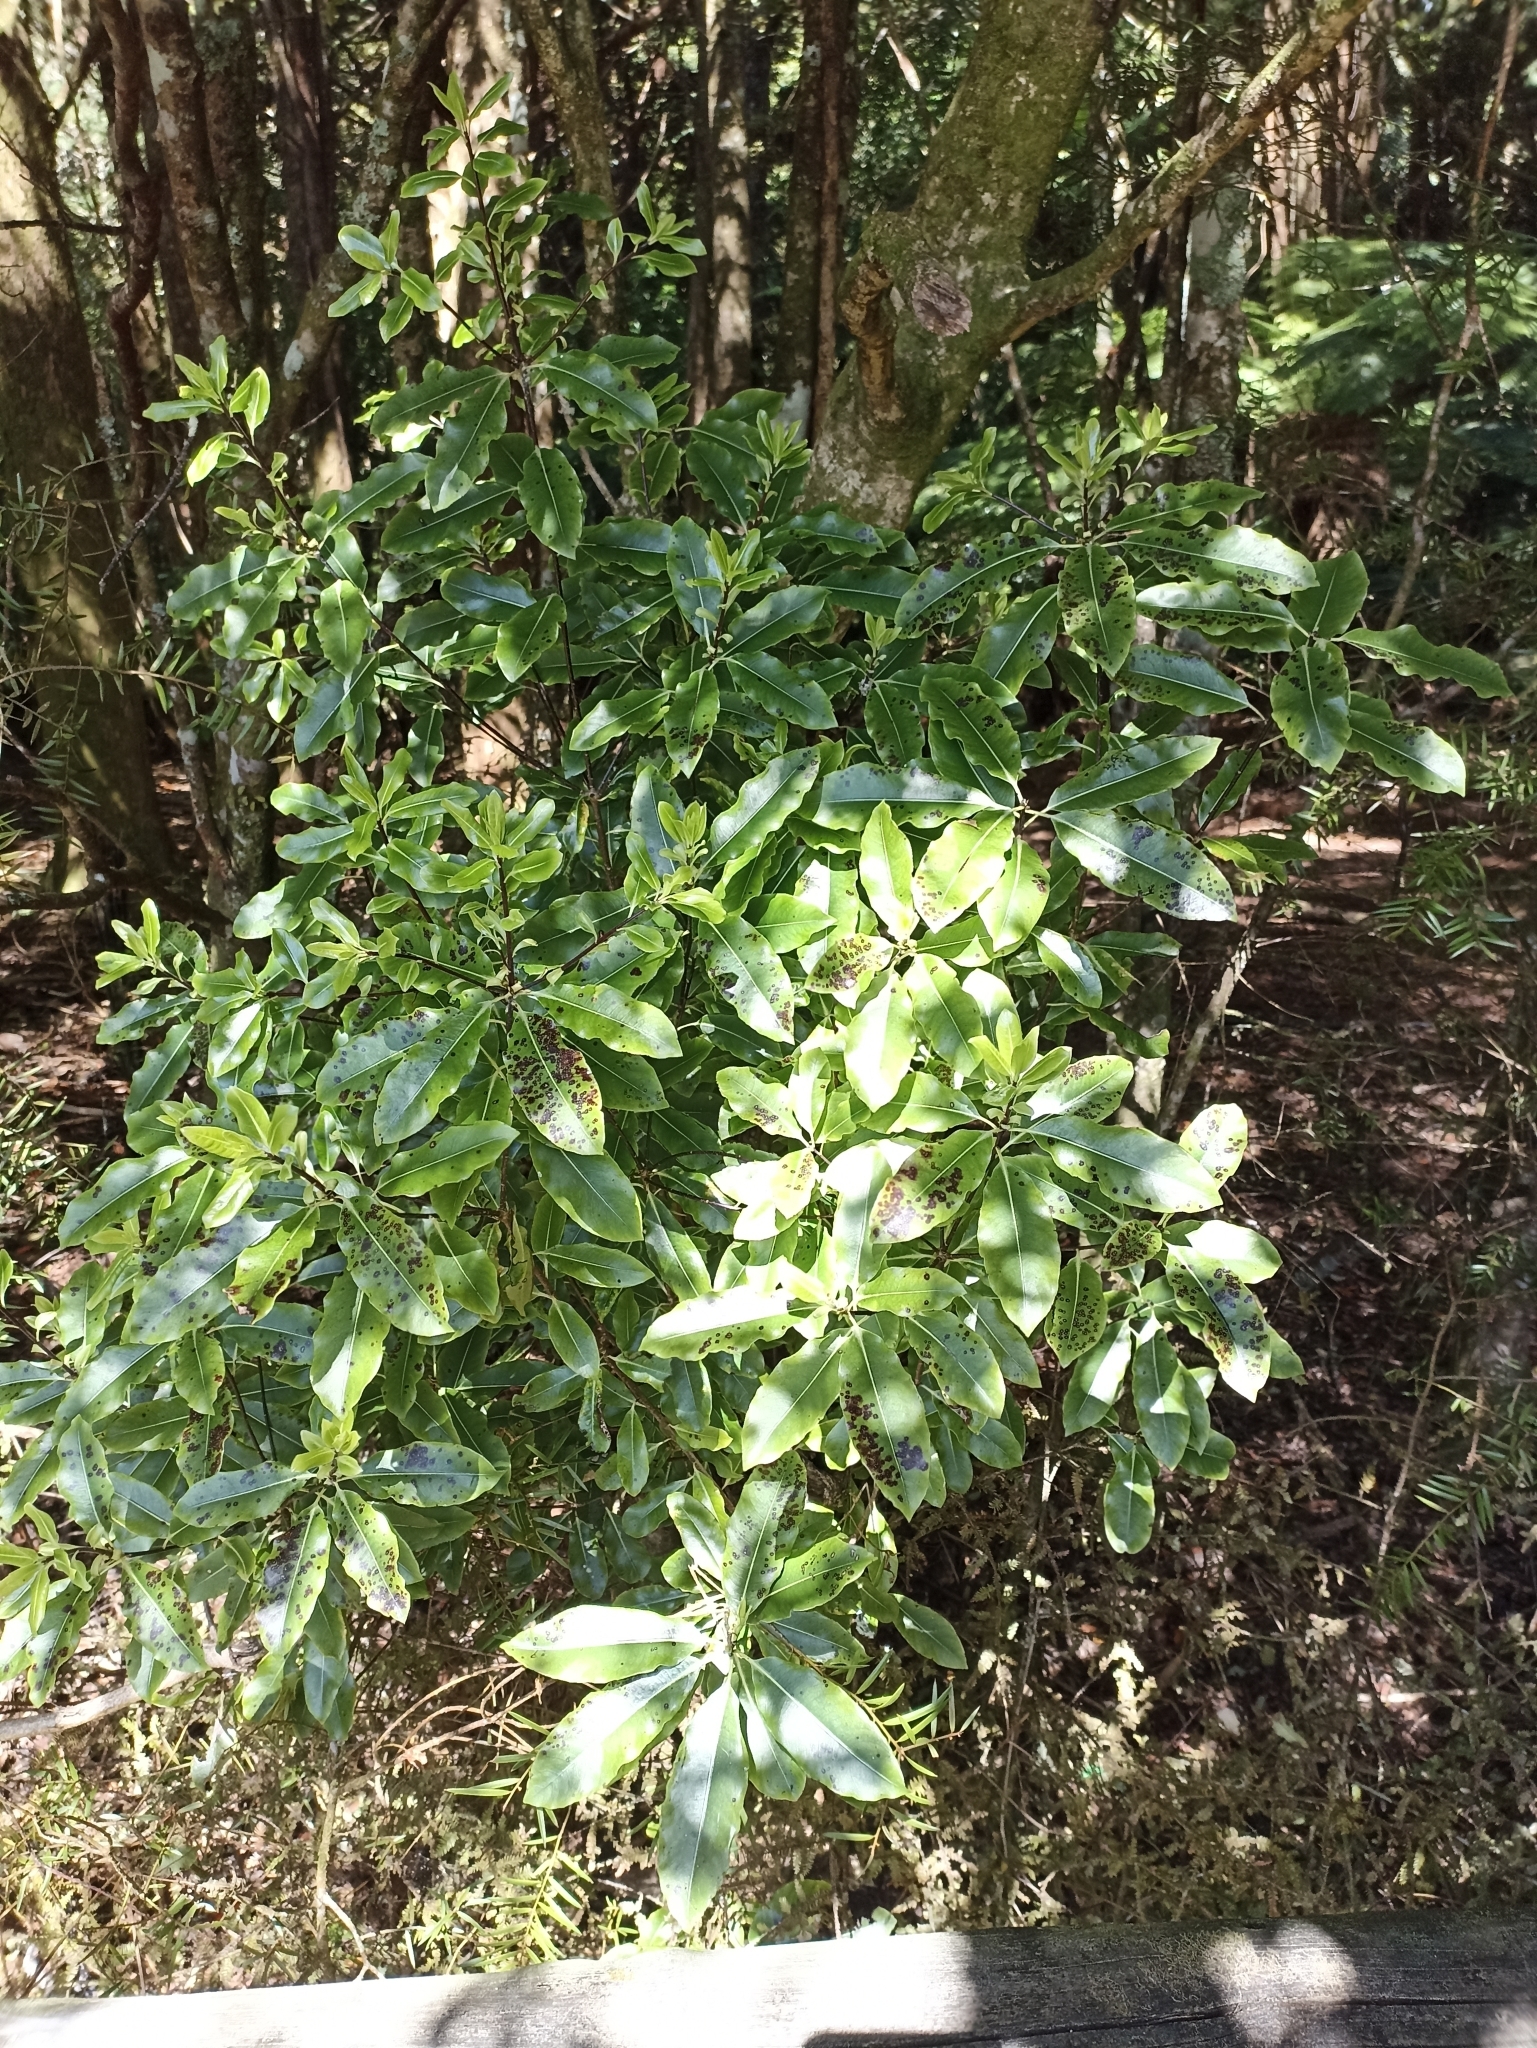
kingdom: Plantae
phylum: Tracheophyta
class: Magnoliopsida
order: Apiales
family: Pittosporaceae
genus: Pittosporum
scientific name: Pittosporum eugenioides
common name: Lemonwood
